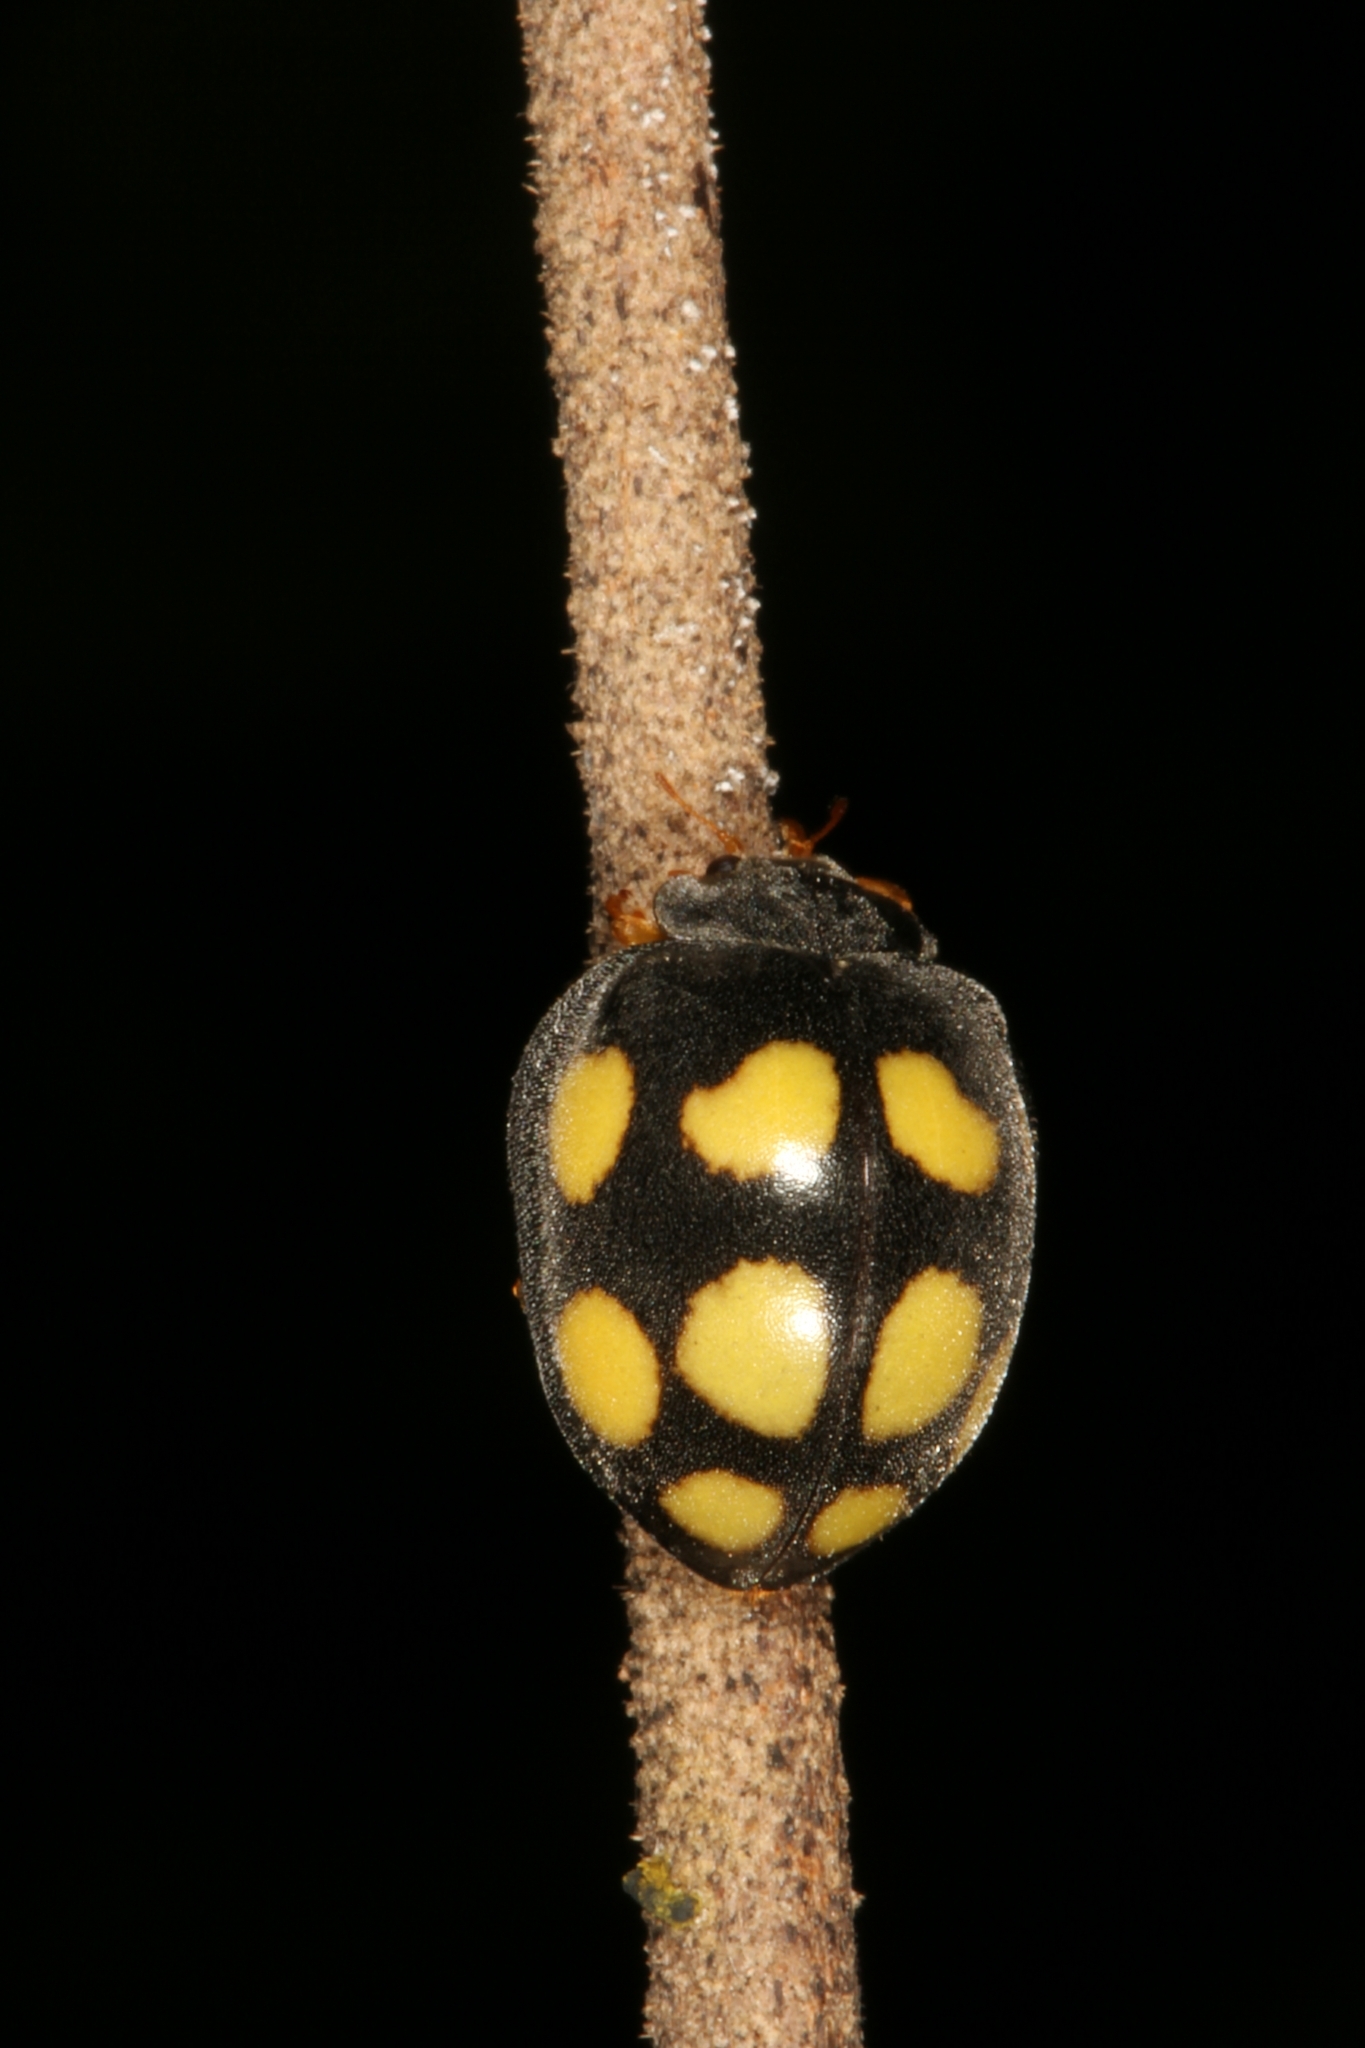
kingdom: Animalia
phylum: Arthropoda
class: Insecta
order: Coleoptera
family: Coccinellidae
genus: Epilachna
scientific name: Epilachna
